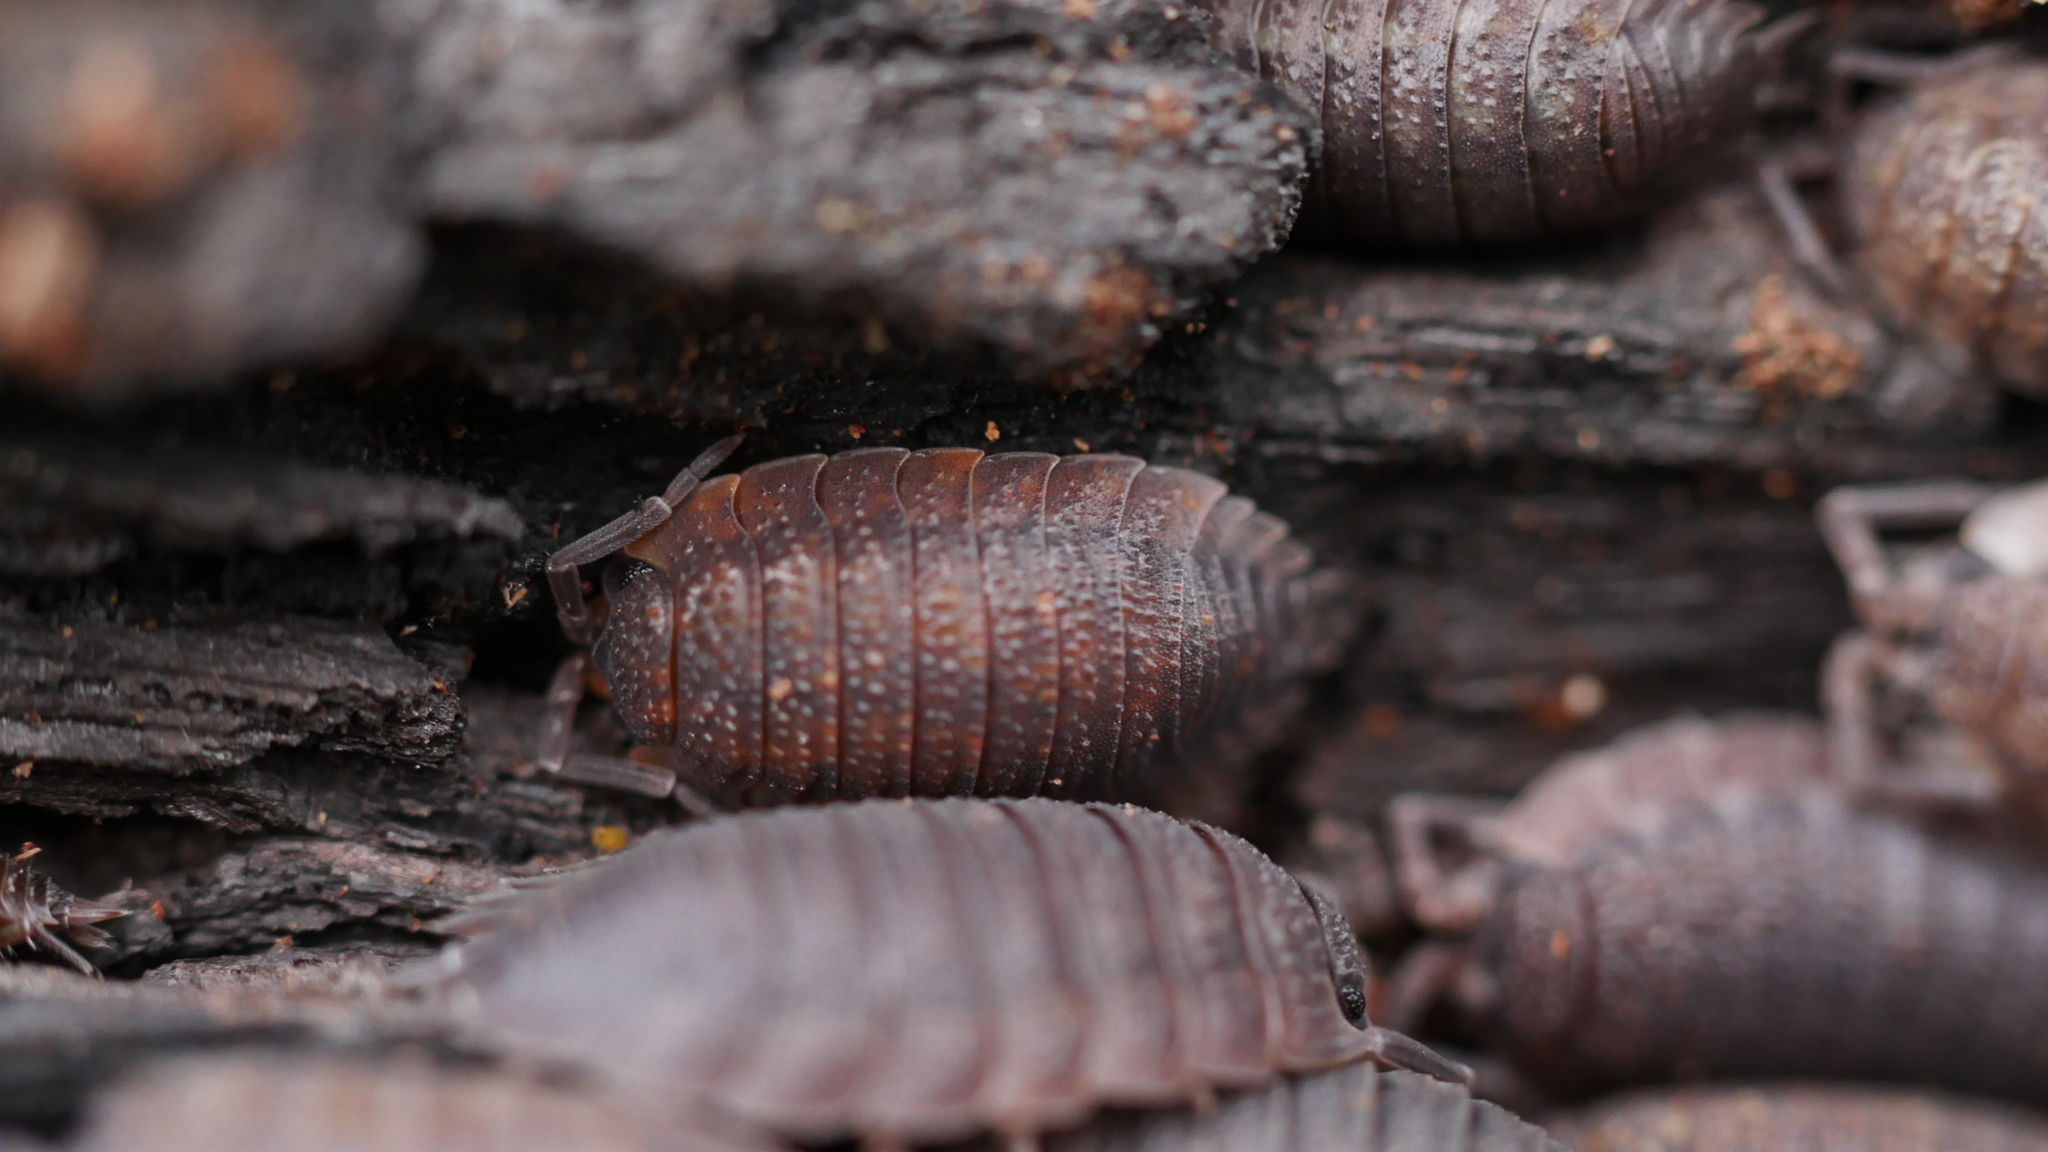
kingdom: Animalia
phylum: Arthropoda
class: Malacostraca
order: Isopoda
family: Porcellionidae
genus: Porcellio
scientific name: Porcellio scaber
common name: Common rough woodlouse
